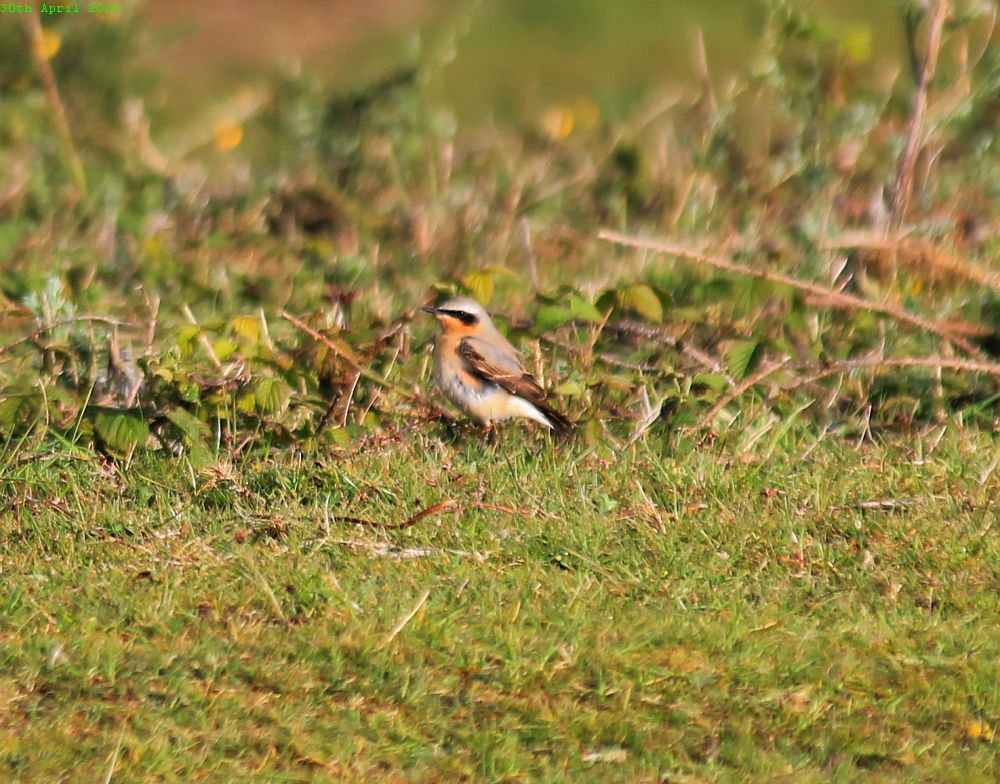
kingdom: Animalia
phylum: Chordata
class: Aves
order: Passeriformes
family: Muscicapidae
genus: Oenanthe
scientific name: Oenanthe oenanthe
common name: Northern wheatear
